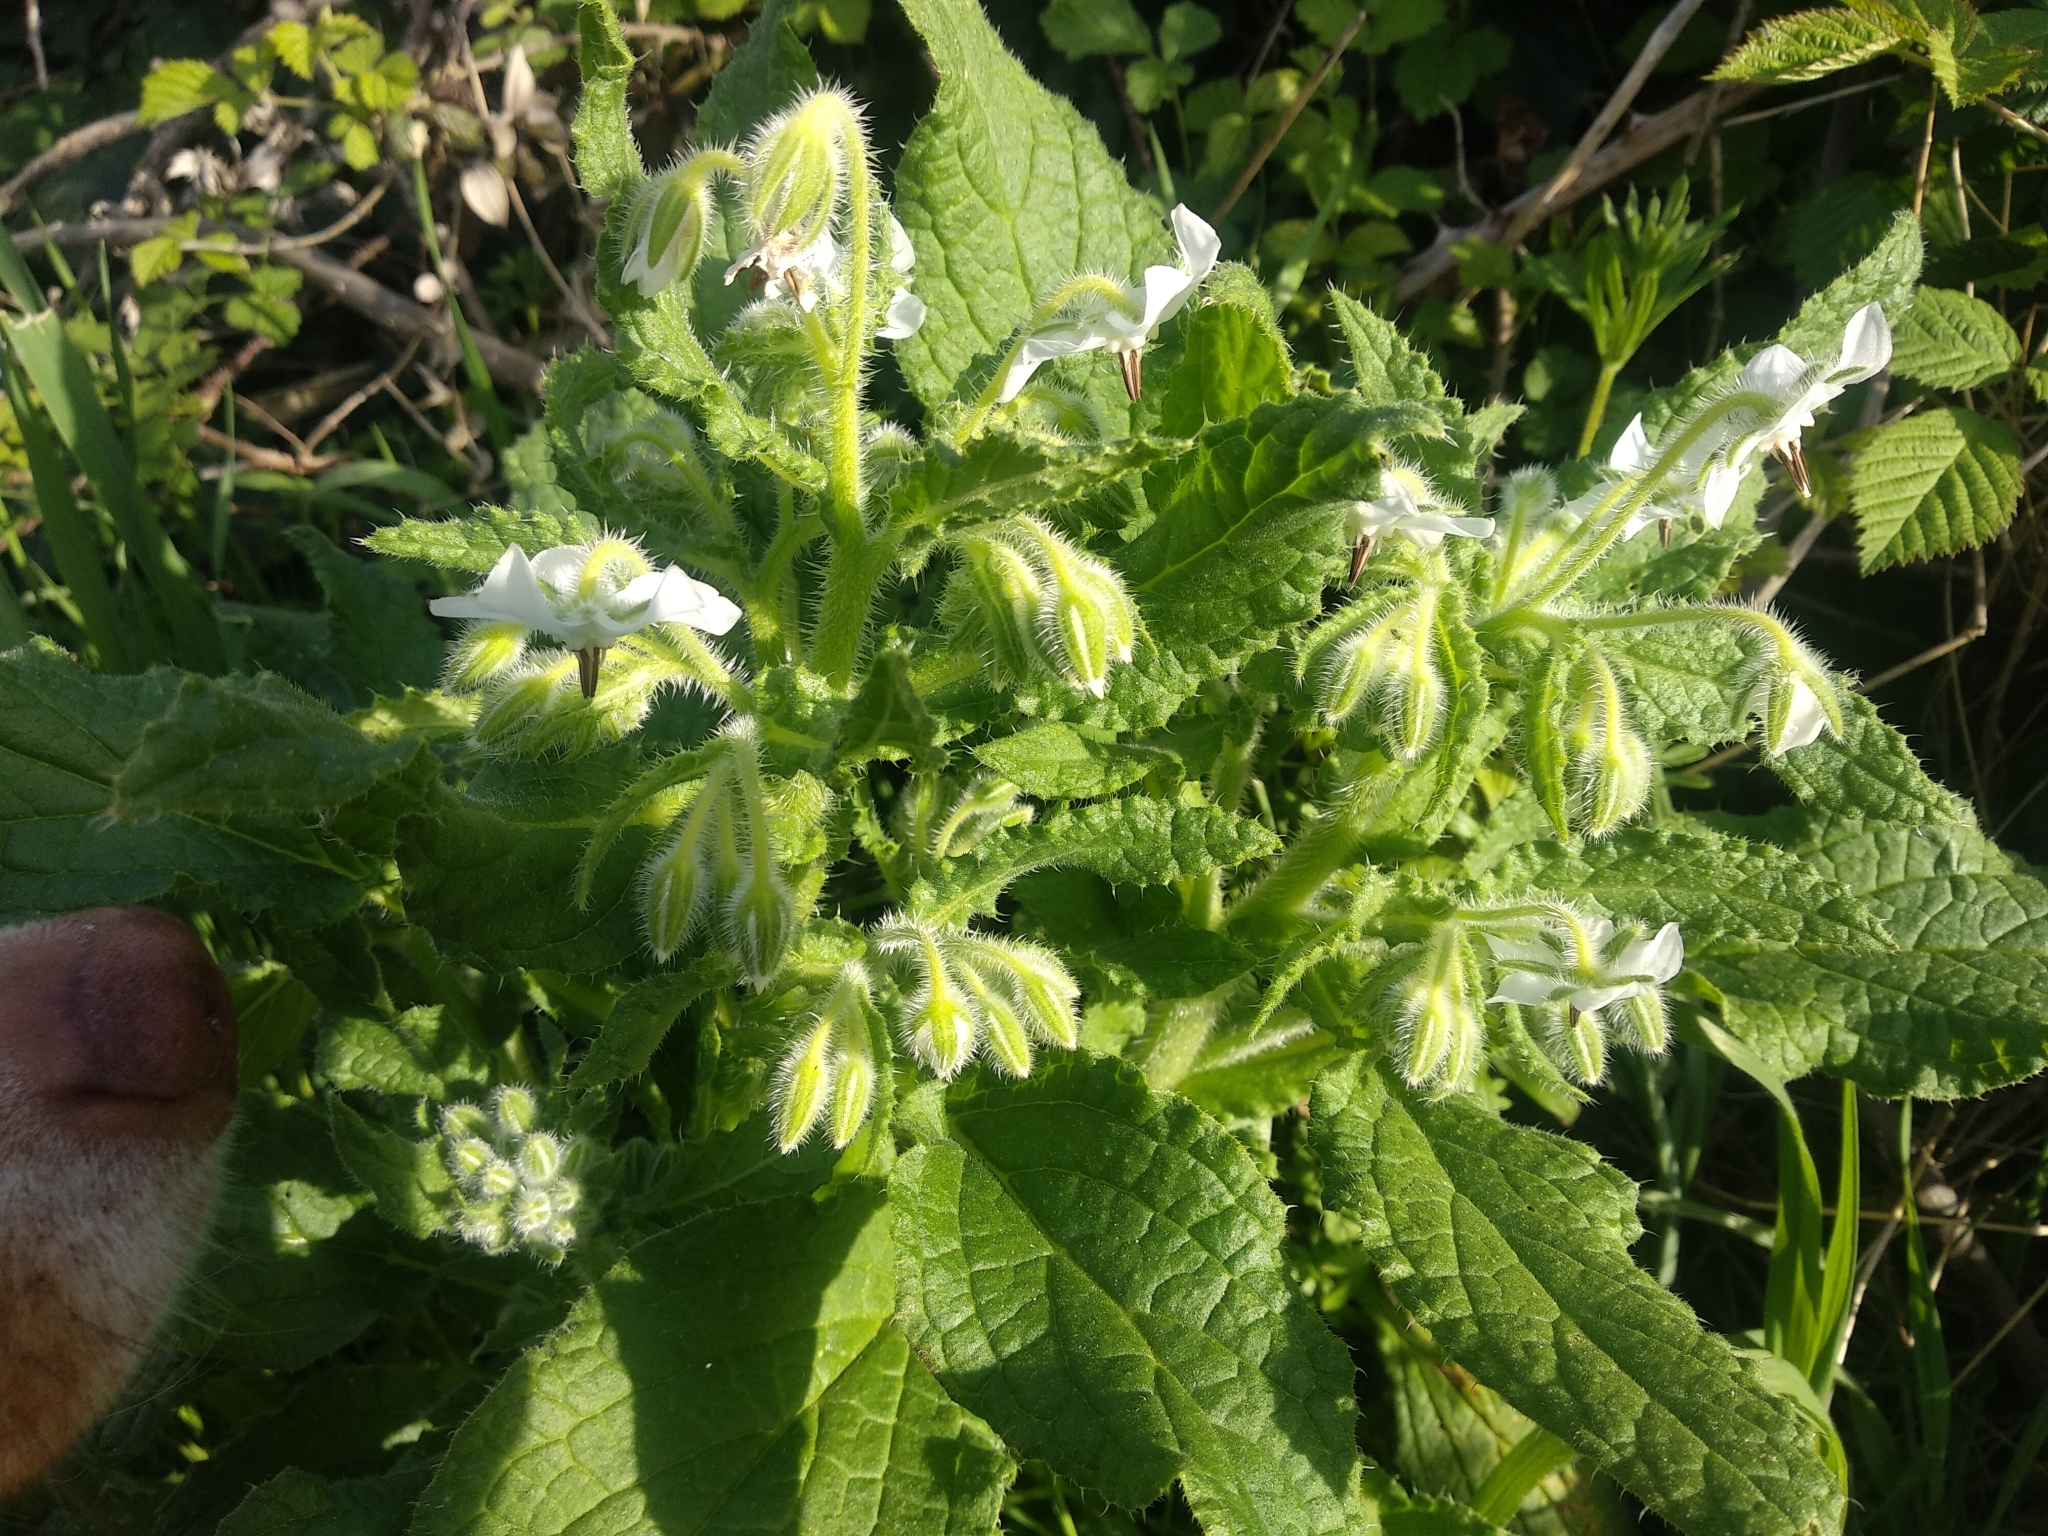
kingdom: Plantae
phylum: Tracheophyta
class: Magnoliopsida
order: Boraginales
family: Boraginaceae
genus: Borago
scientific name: Borago officinalis
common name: Borage
